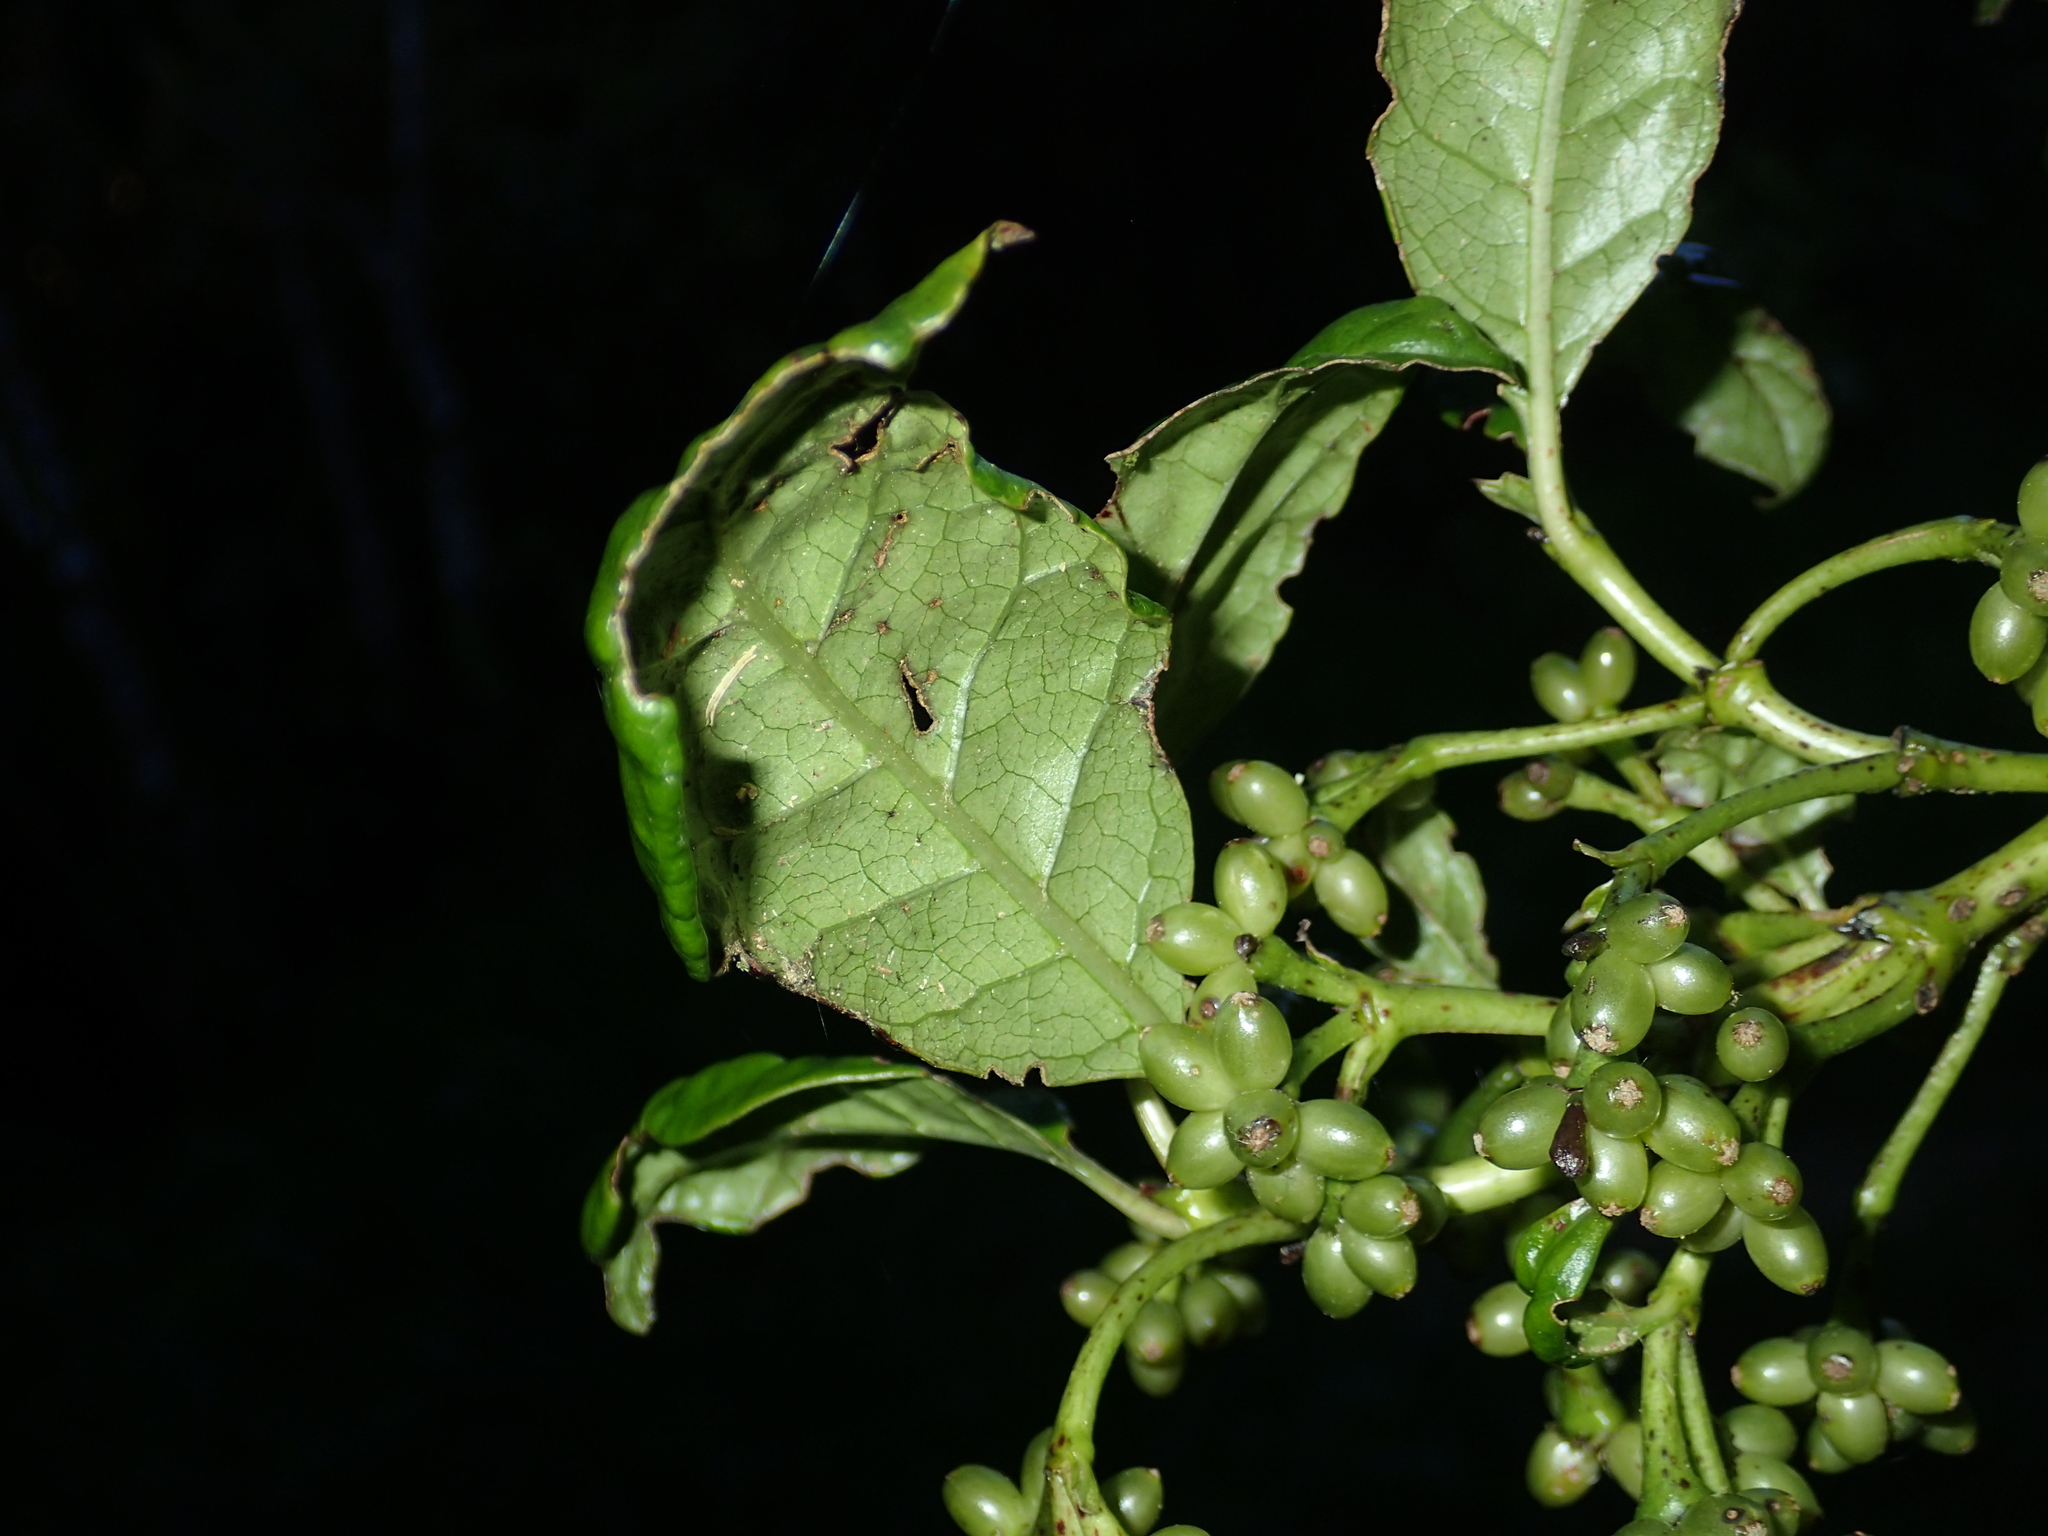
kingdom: Plantae
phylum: Tracheophyta
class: Magnoliopsida
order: Gentianales
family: Rubiaceae
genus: Coprosma
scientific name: Coprosma autumnalis
